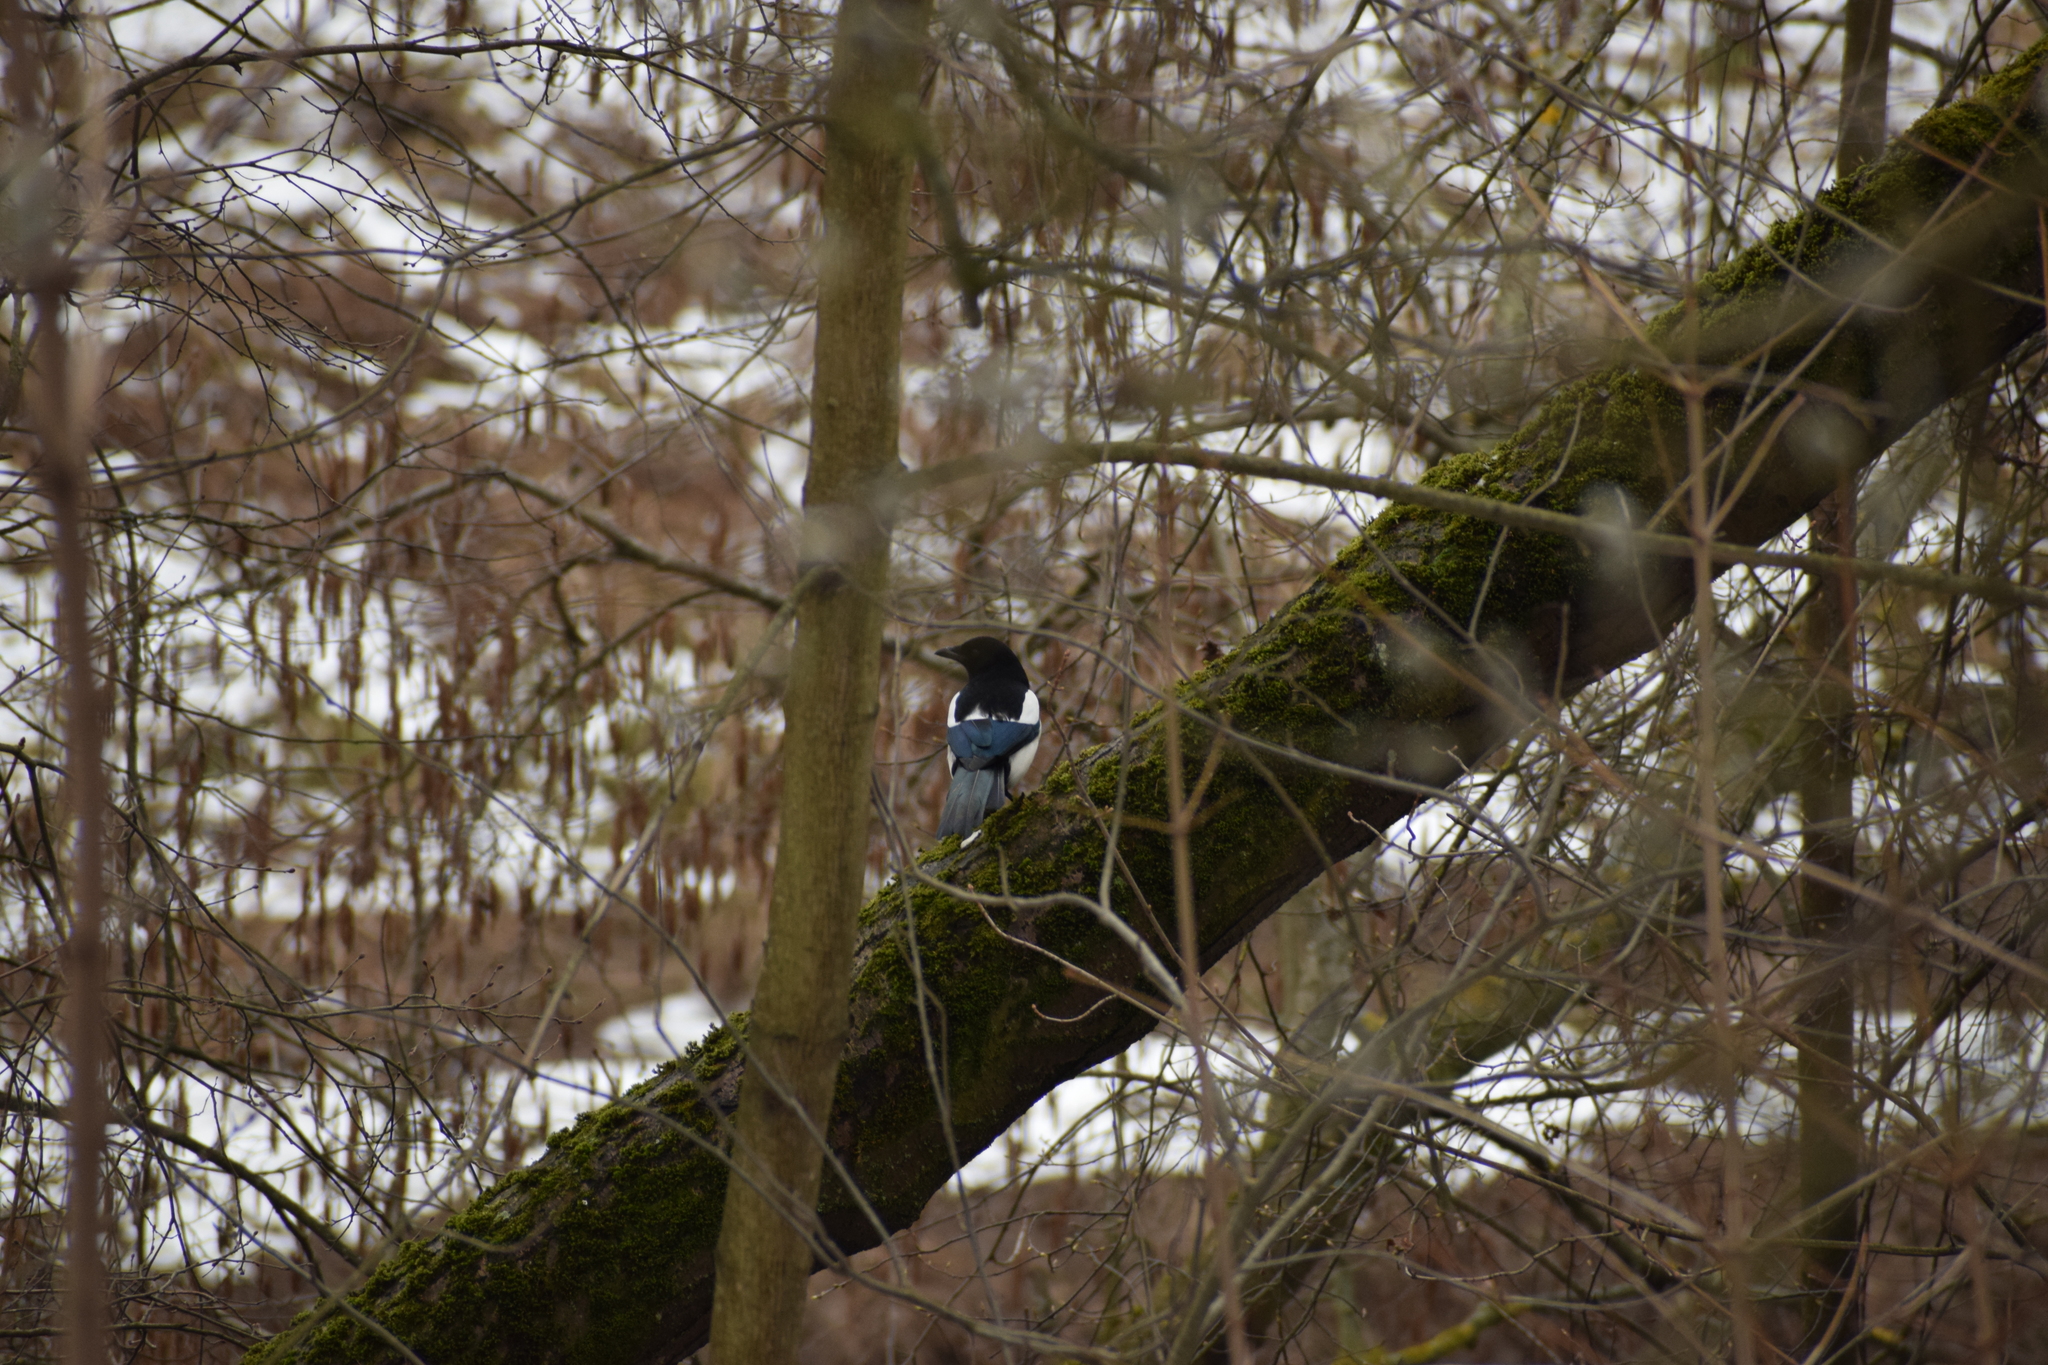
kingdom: Animalia
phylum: Chordata
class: Aves
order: Passeriformes
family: Corvidae
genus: Pica
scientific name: Pica pica
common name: Eurasian magpie
